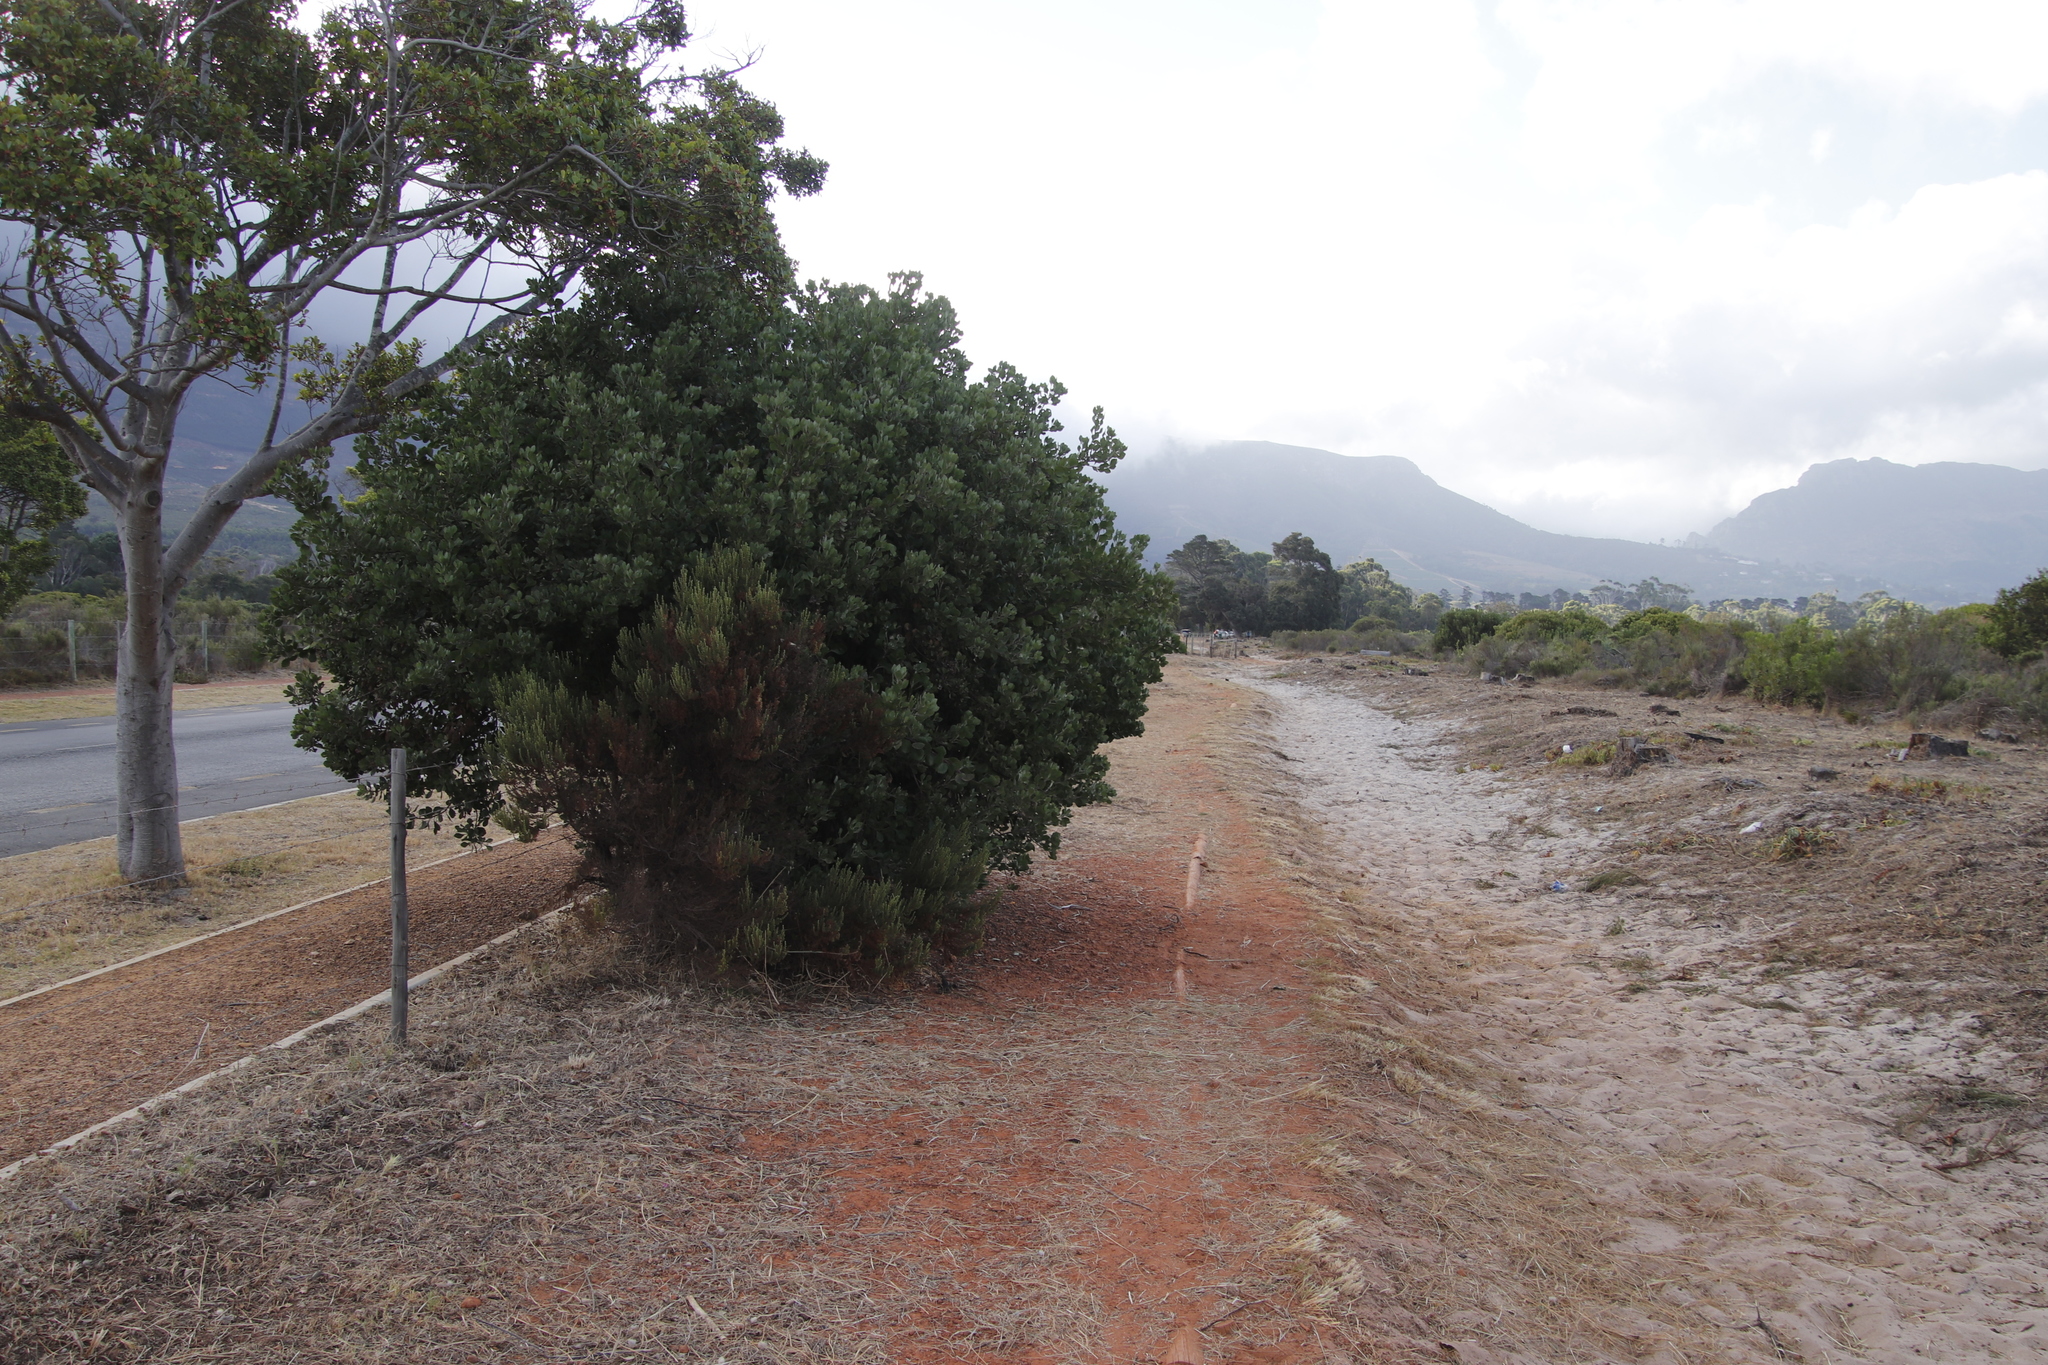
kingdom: Plantae
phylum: Tracheophyta
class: Magnoliopsida
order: Asterales
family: Asteraceae
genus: Osteospermum
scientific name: Osteospermum moniliferum
